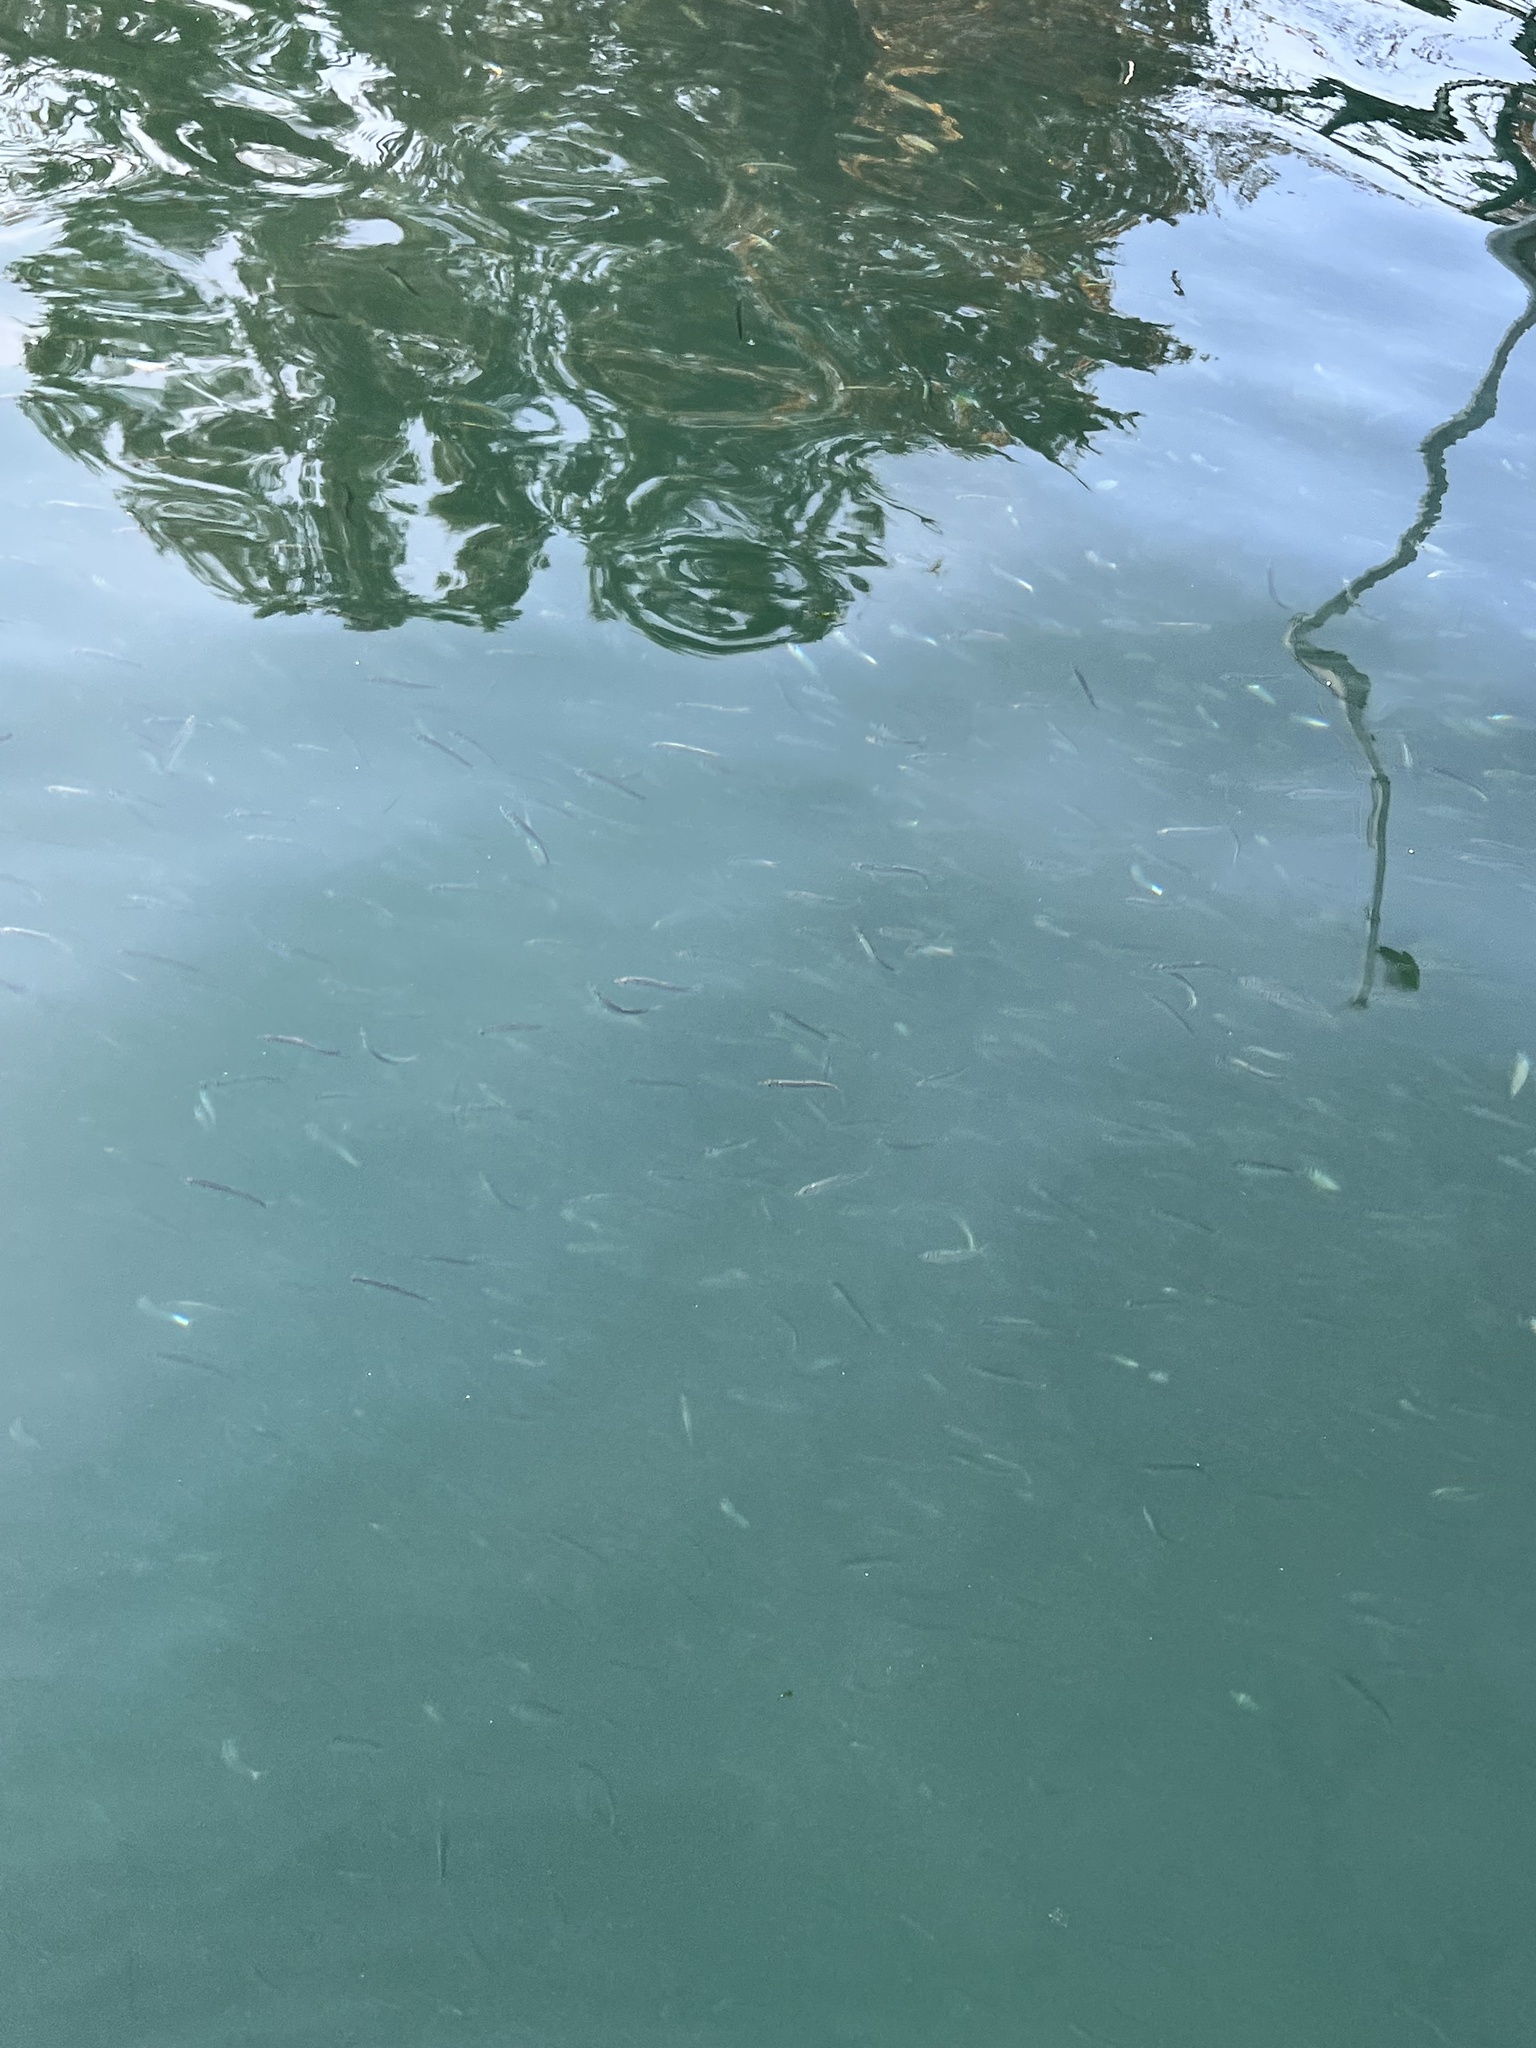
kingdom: Animalia
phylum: Chordata
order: Clupeiformes
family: Clupeidae
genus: Clupea
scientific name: Clupea pallasii
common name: Pacific herring
